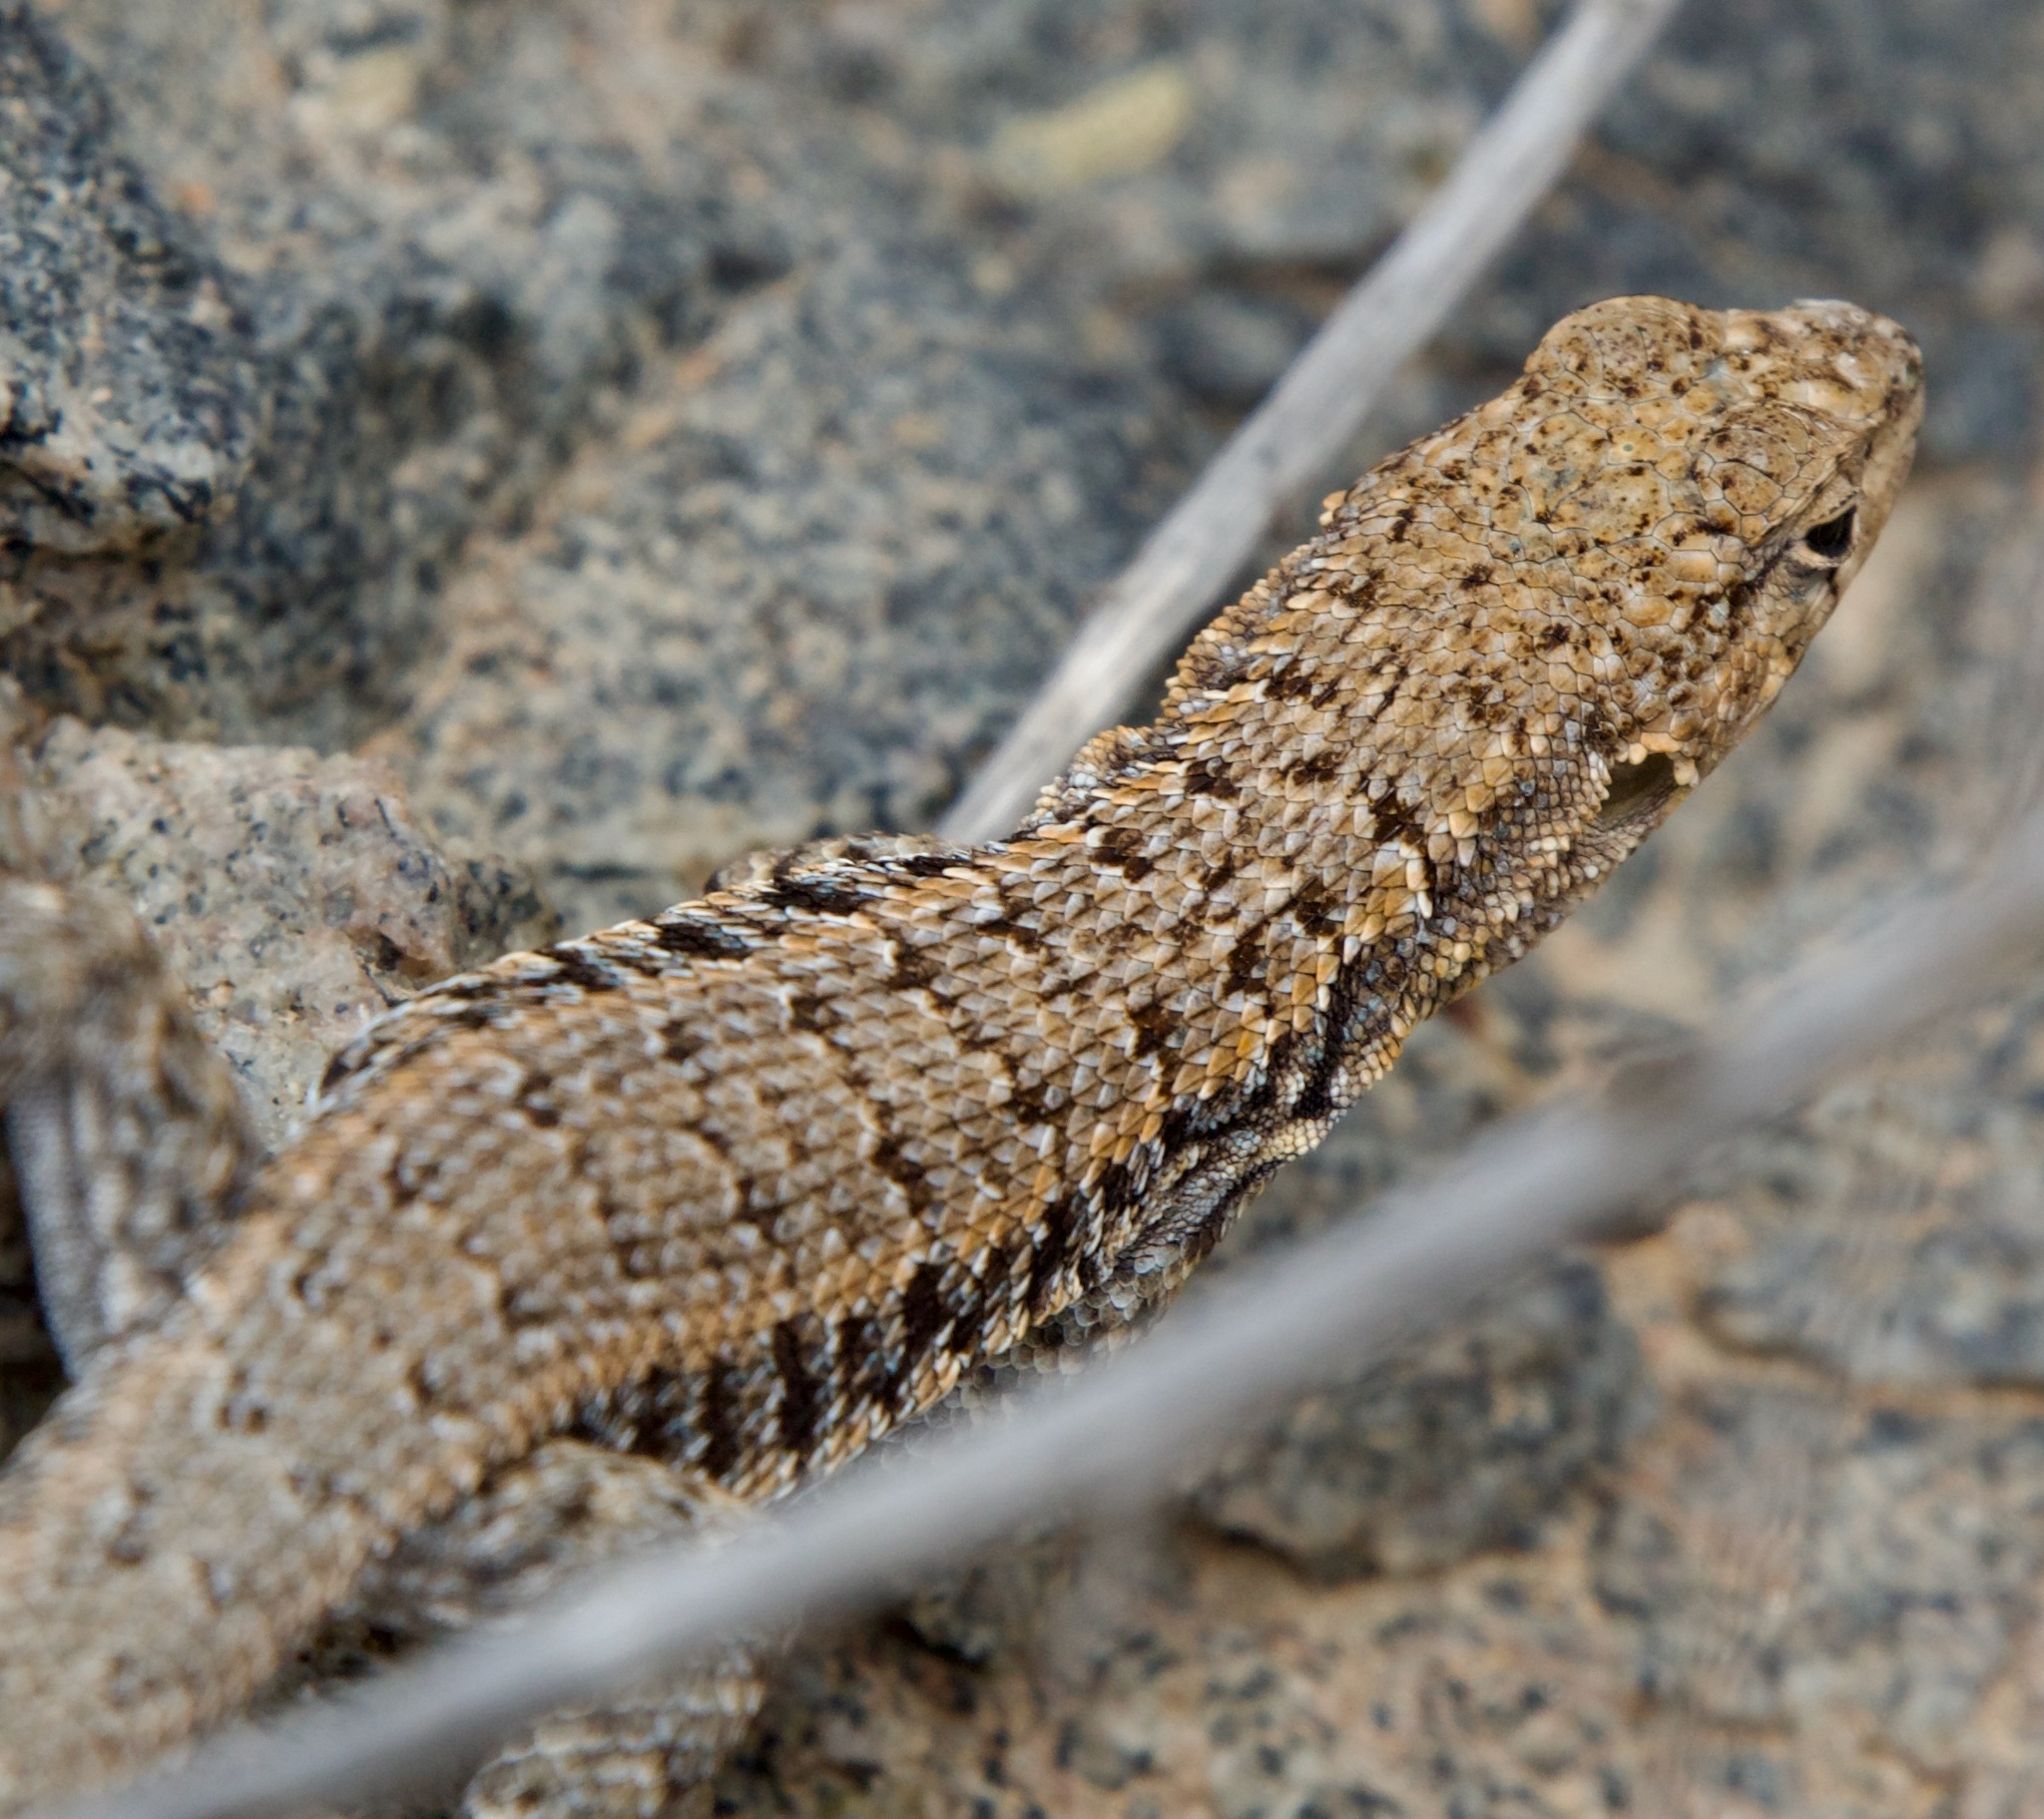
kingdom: Animalia
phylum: Chordata
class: Squamata
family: Liolaemidae
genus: Liolaemus
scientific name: Liolaemus platei
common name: Braided tree iguana
